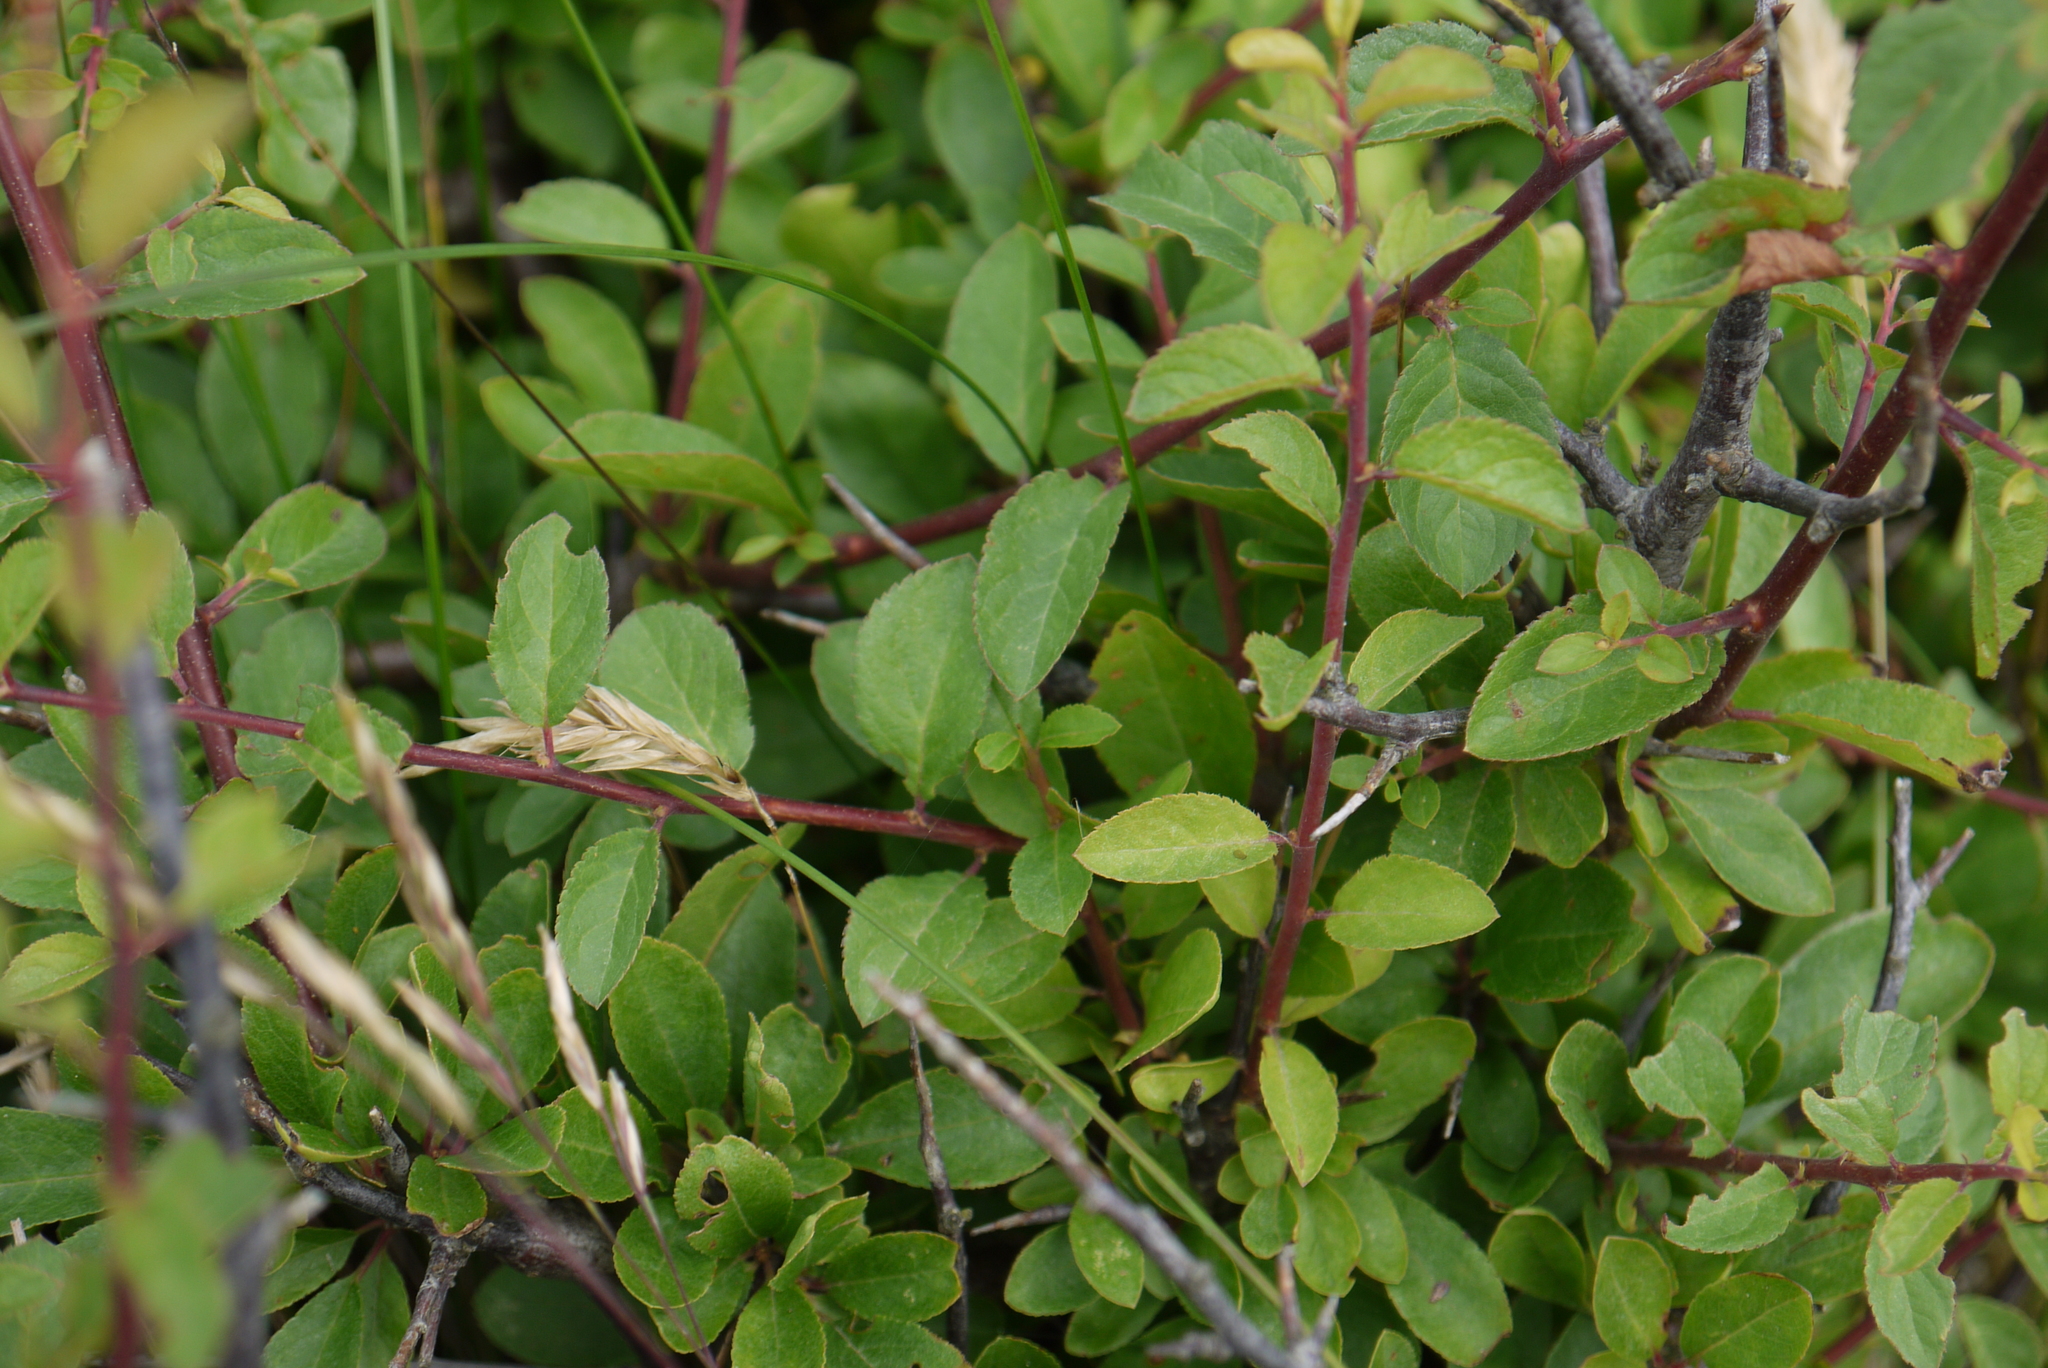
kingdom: Plantae
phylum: Tracheophyta
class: Magnoliopsida
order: Rosales
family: Rosaceae
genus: Prunus
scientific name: Prunus spinosa
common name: Blackthorn
